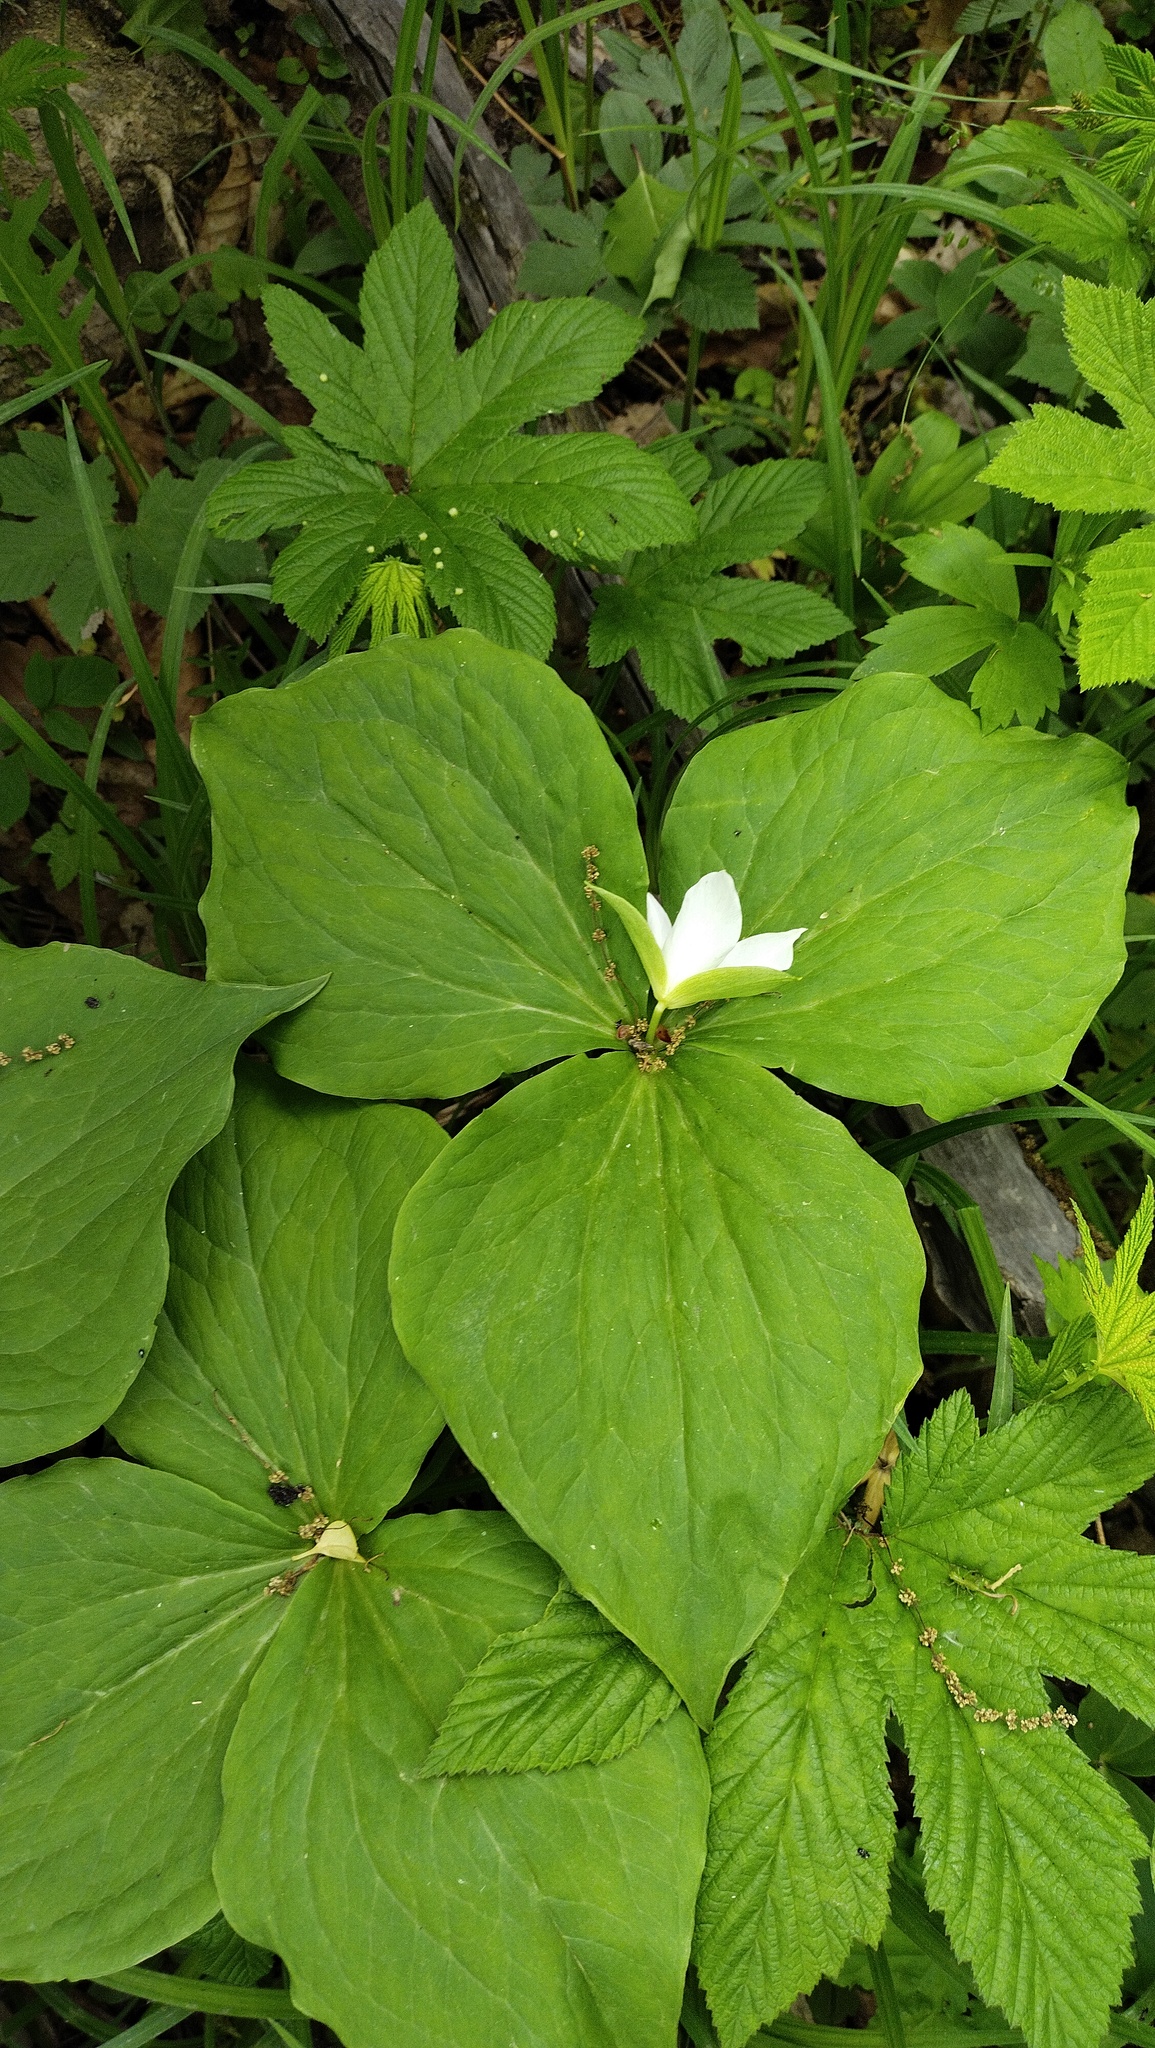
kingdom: Plantae
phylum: Tracheophyta
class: Liliopsida
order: Liliales
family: Melanthiaceae
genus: Trillium
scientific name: Trillium komarovii
